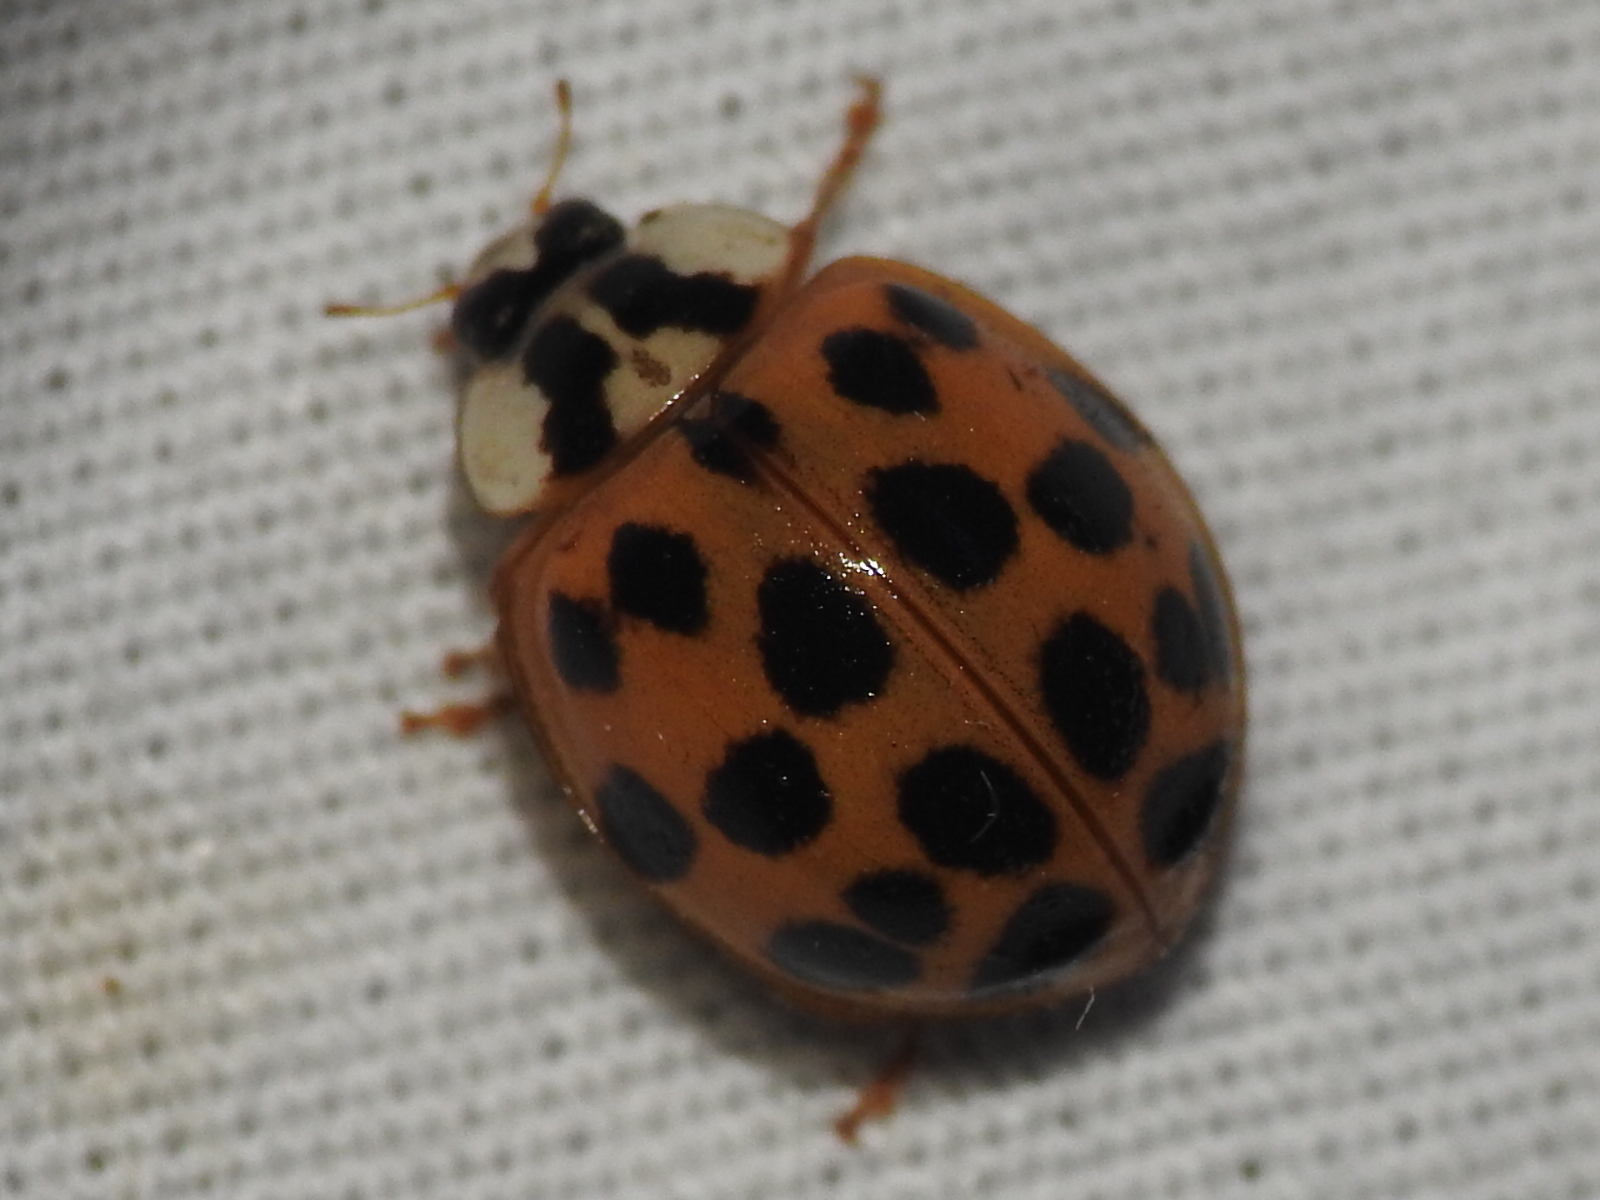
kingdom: Animalia
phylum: Arthropoda
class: Insecta
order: Coleoptera
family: Coccinellidae
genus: Harmonia
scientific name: Harmonia axyridis
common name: Harlequin ladybird
